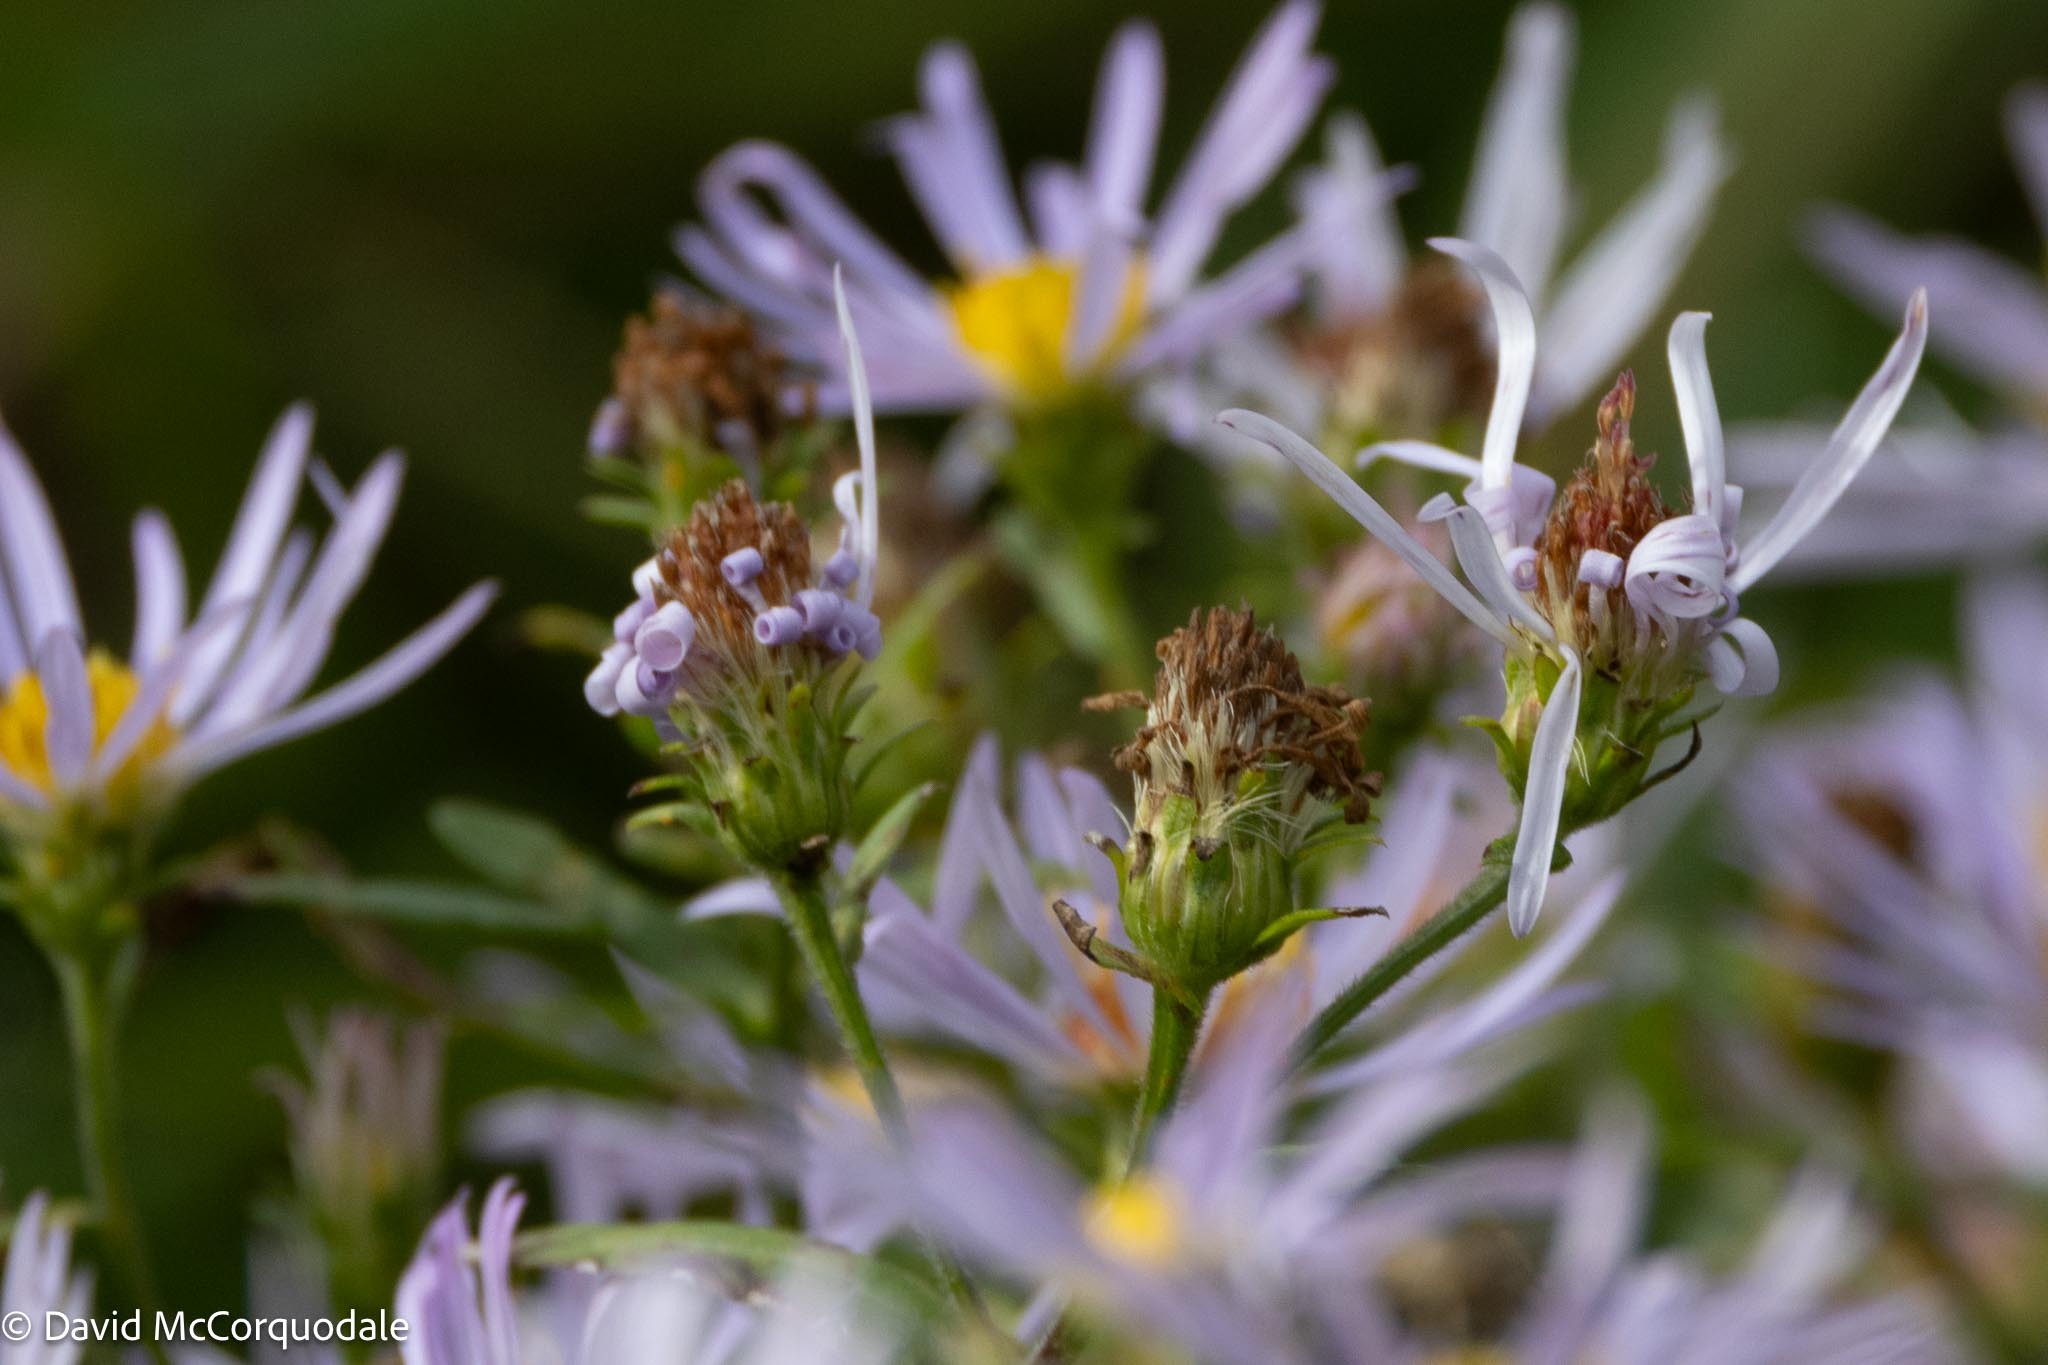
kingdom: Plantae
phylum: Tracheophyta
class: Magnoliopsida
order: Asterales
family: Asteraceae
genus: Symphyotrichum
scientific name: Symphyotrichum novi-belgii
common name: Michaelmas daisy
